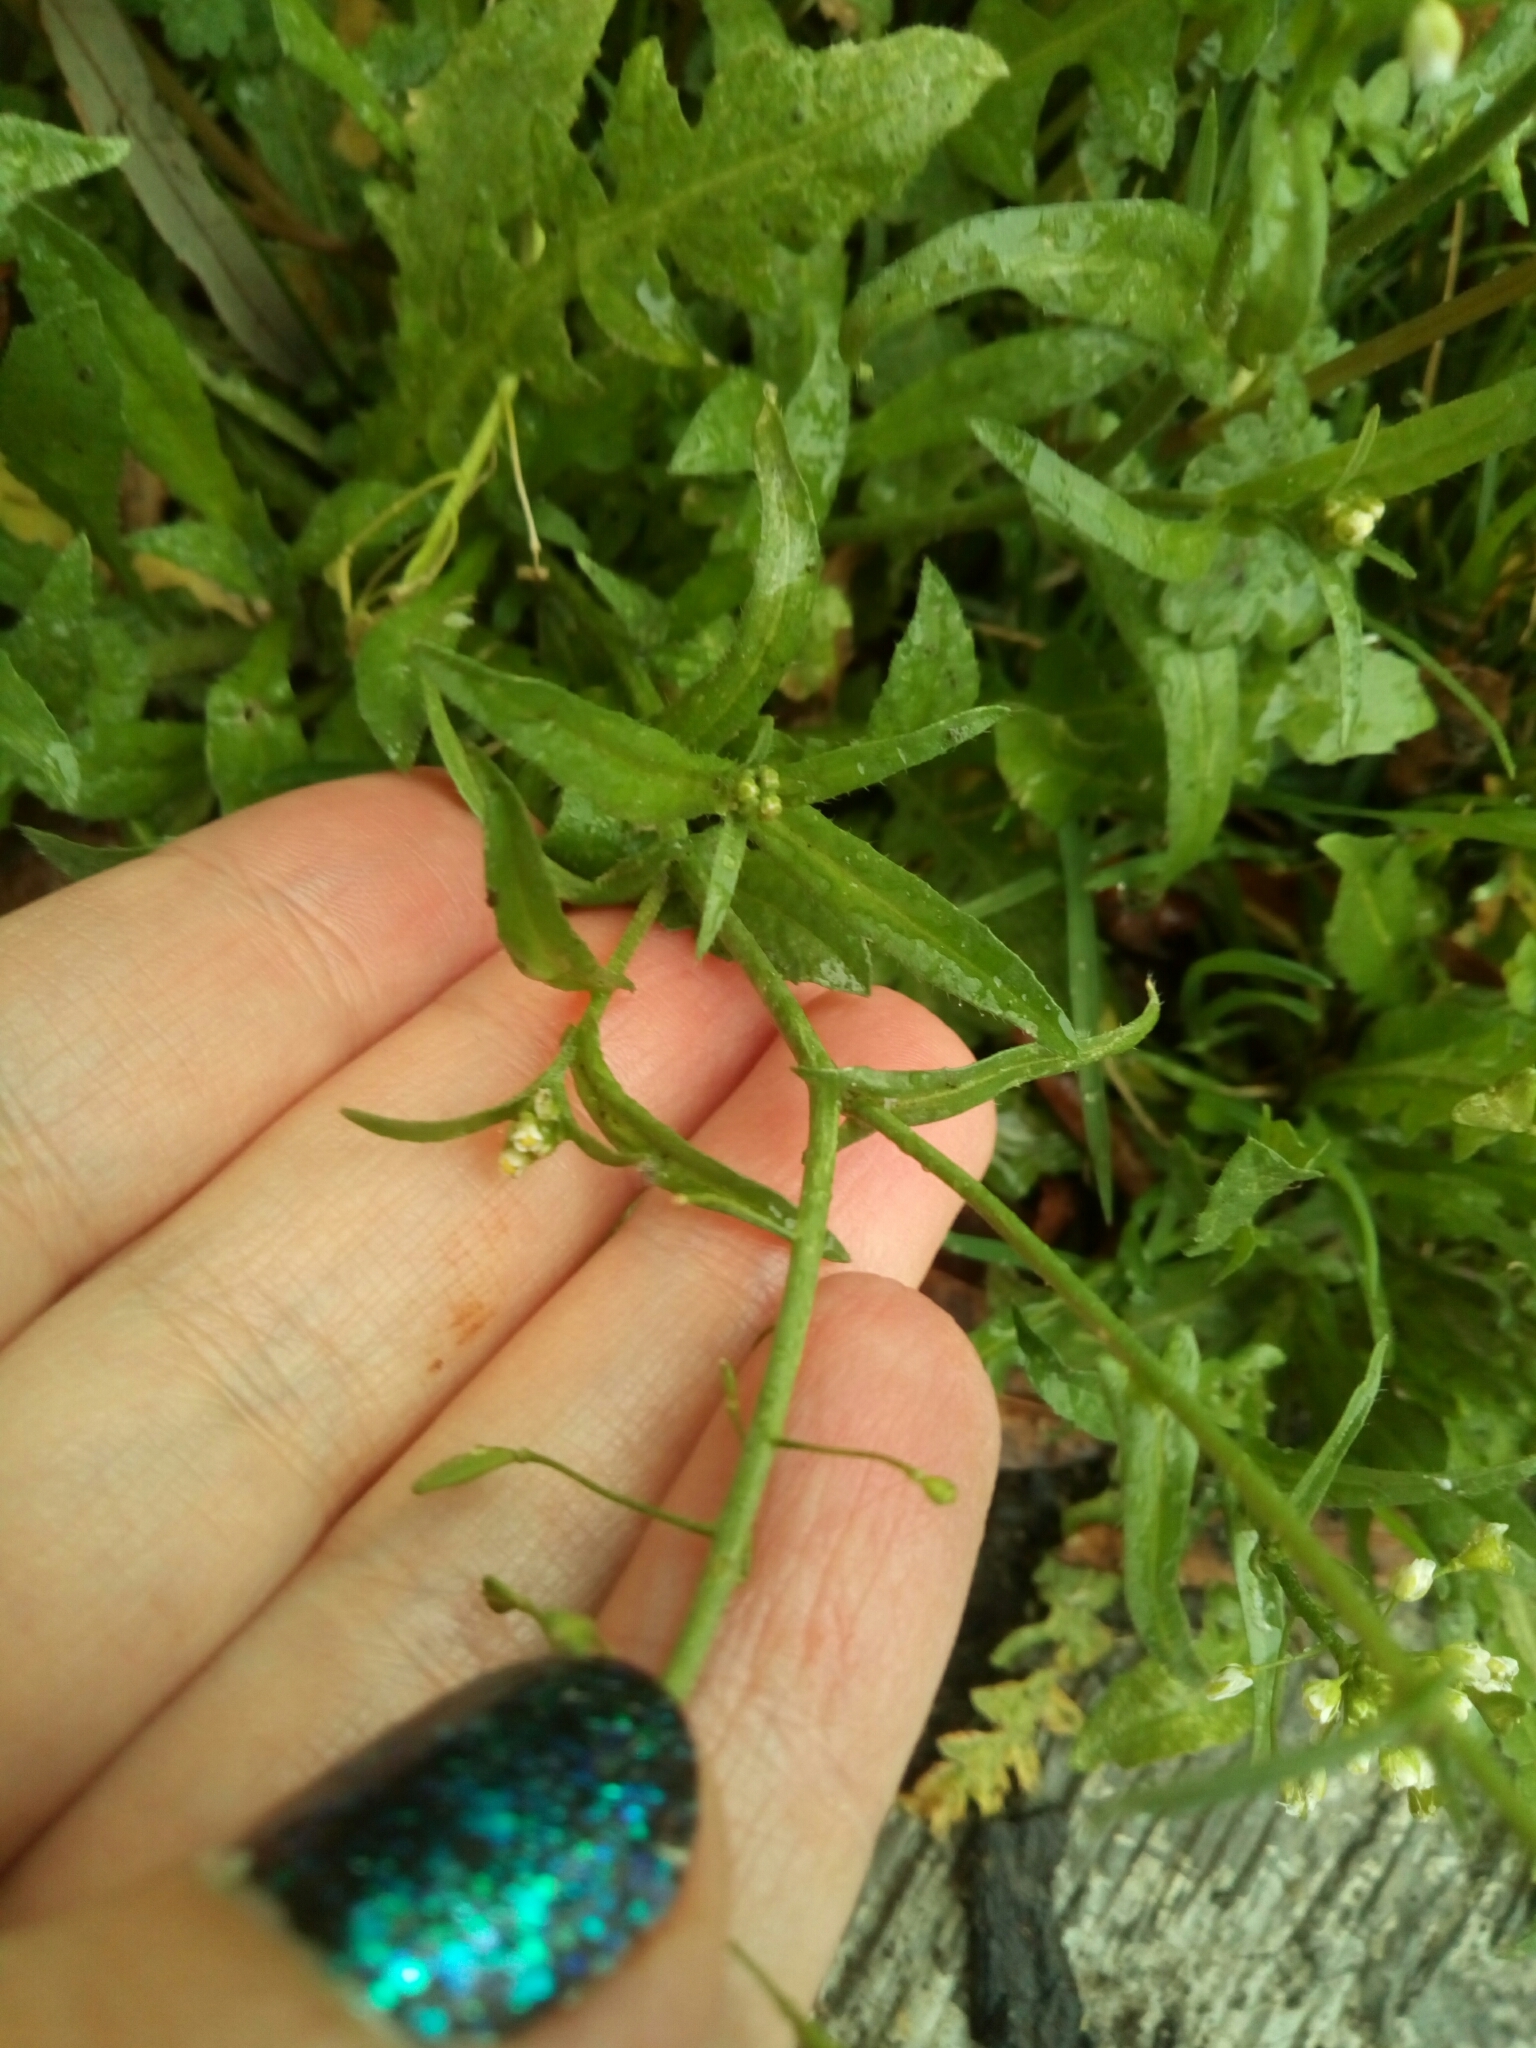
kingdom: Plantae
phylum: Tracheophyta
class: Magnoliopsida
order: Brassicales
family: Brassicaceae
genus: Capsella
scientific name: Capsella bursa-pastoris
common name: Shepherd's purse
